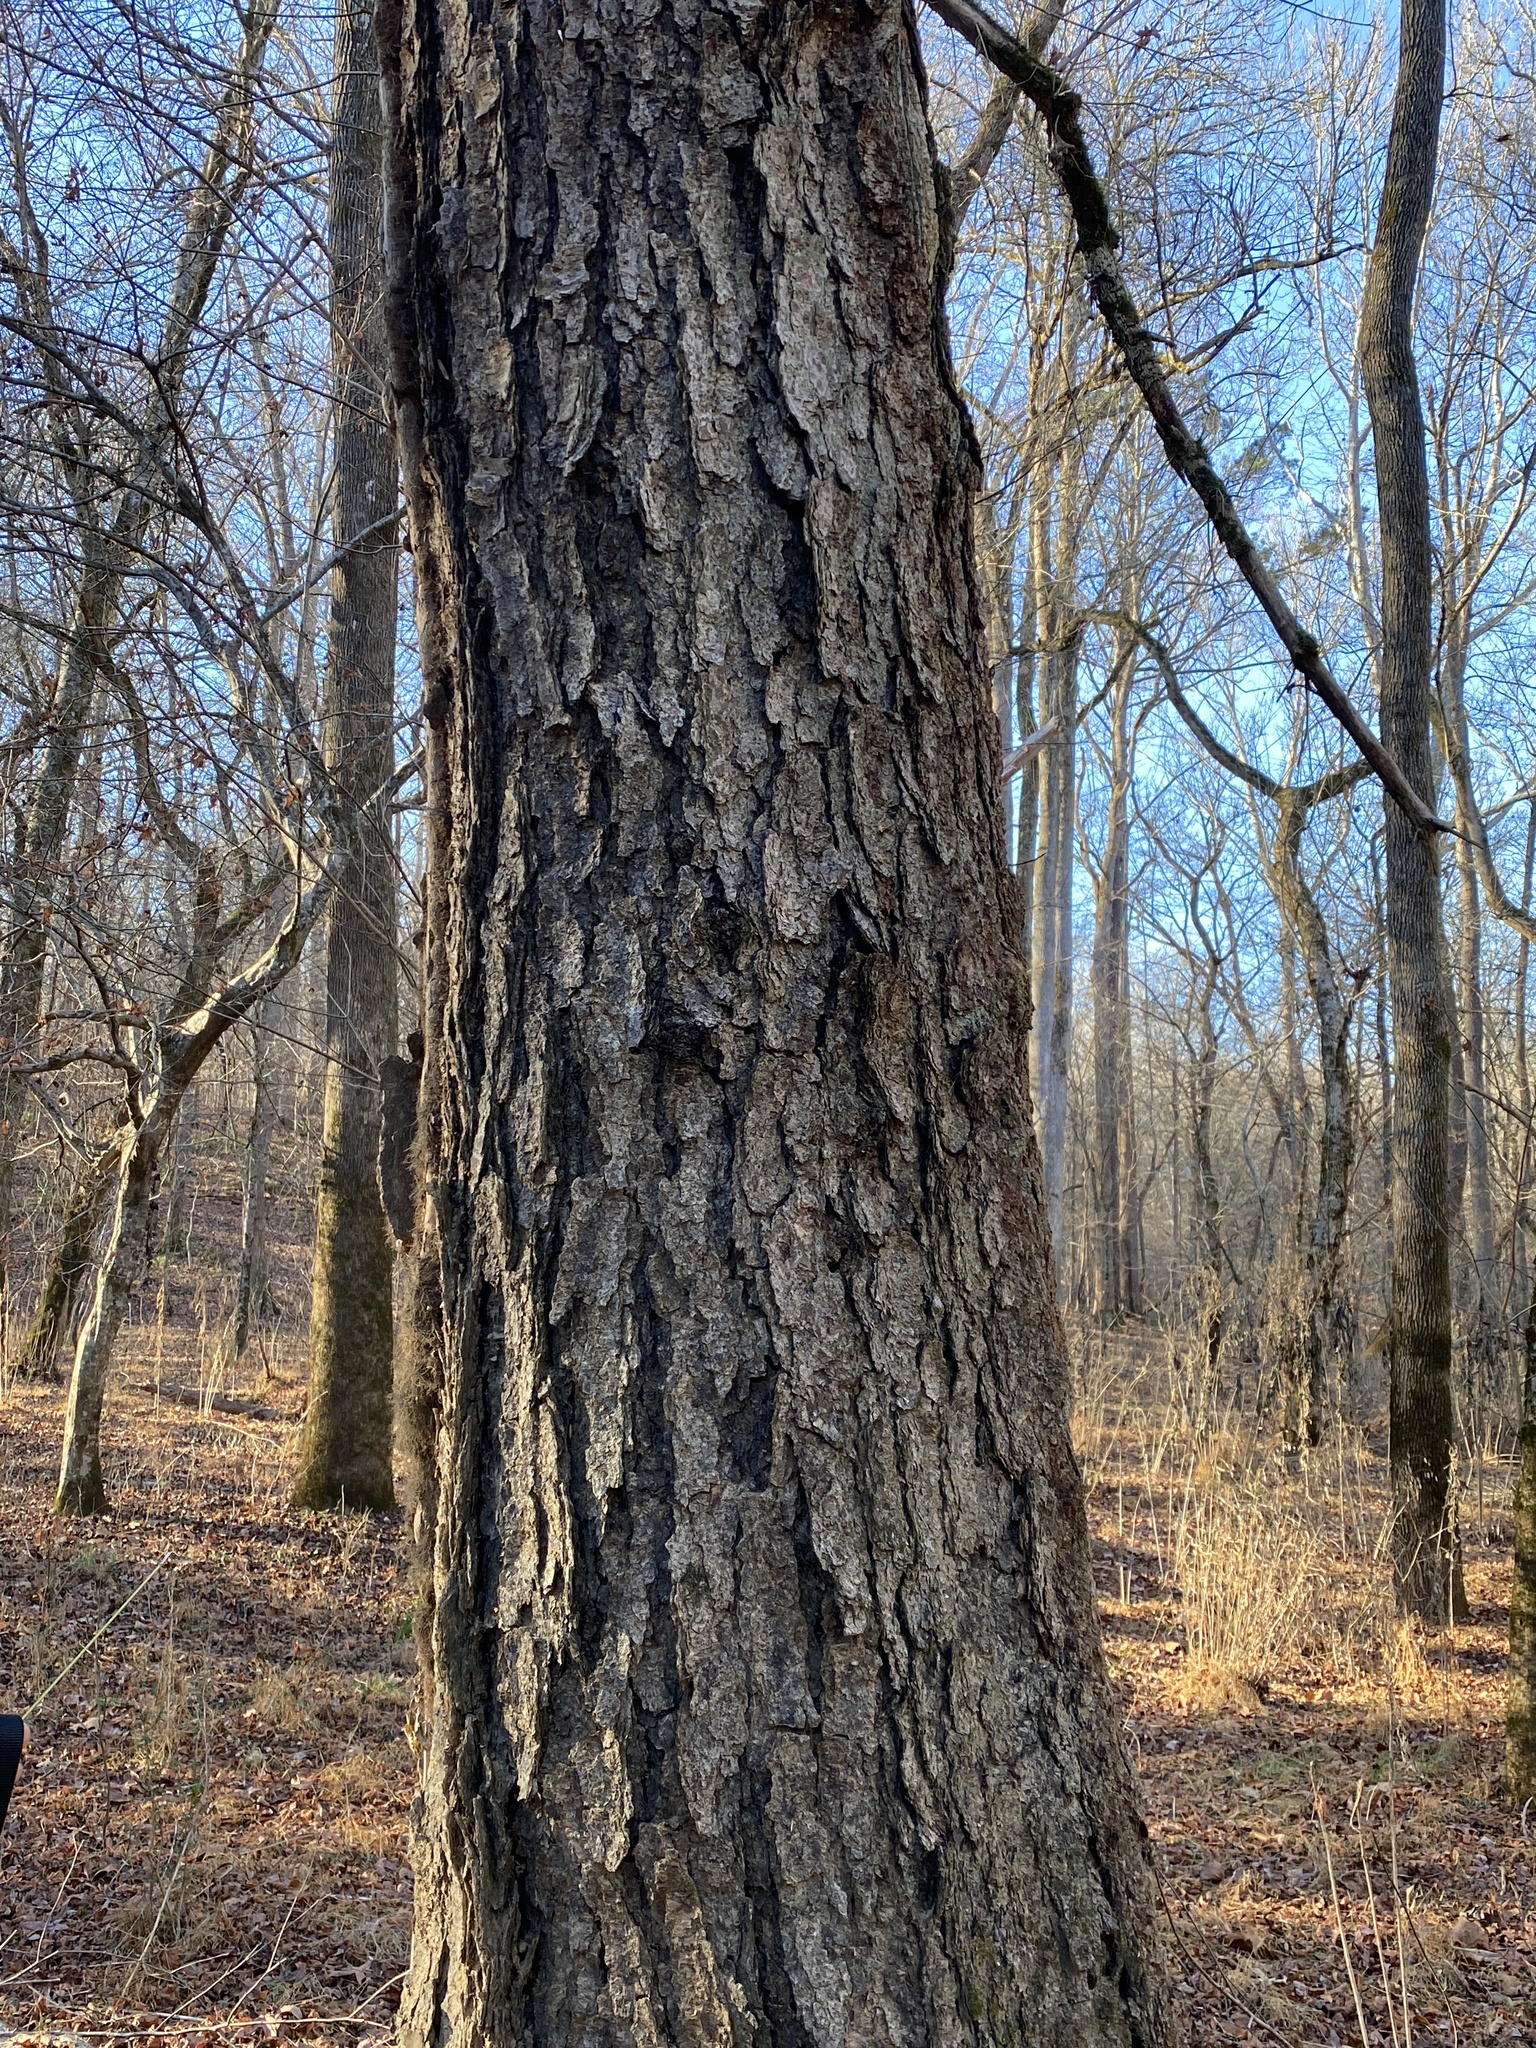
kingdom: Plantae
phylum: Tracheophyta
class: Magnoliopsida
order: Fagales
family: Betulaceae
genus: Betula
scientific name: Betula nigra
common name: Black birch
